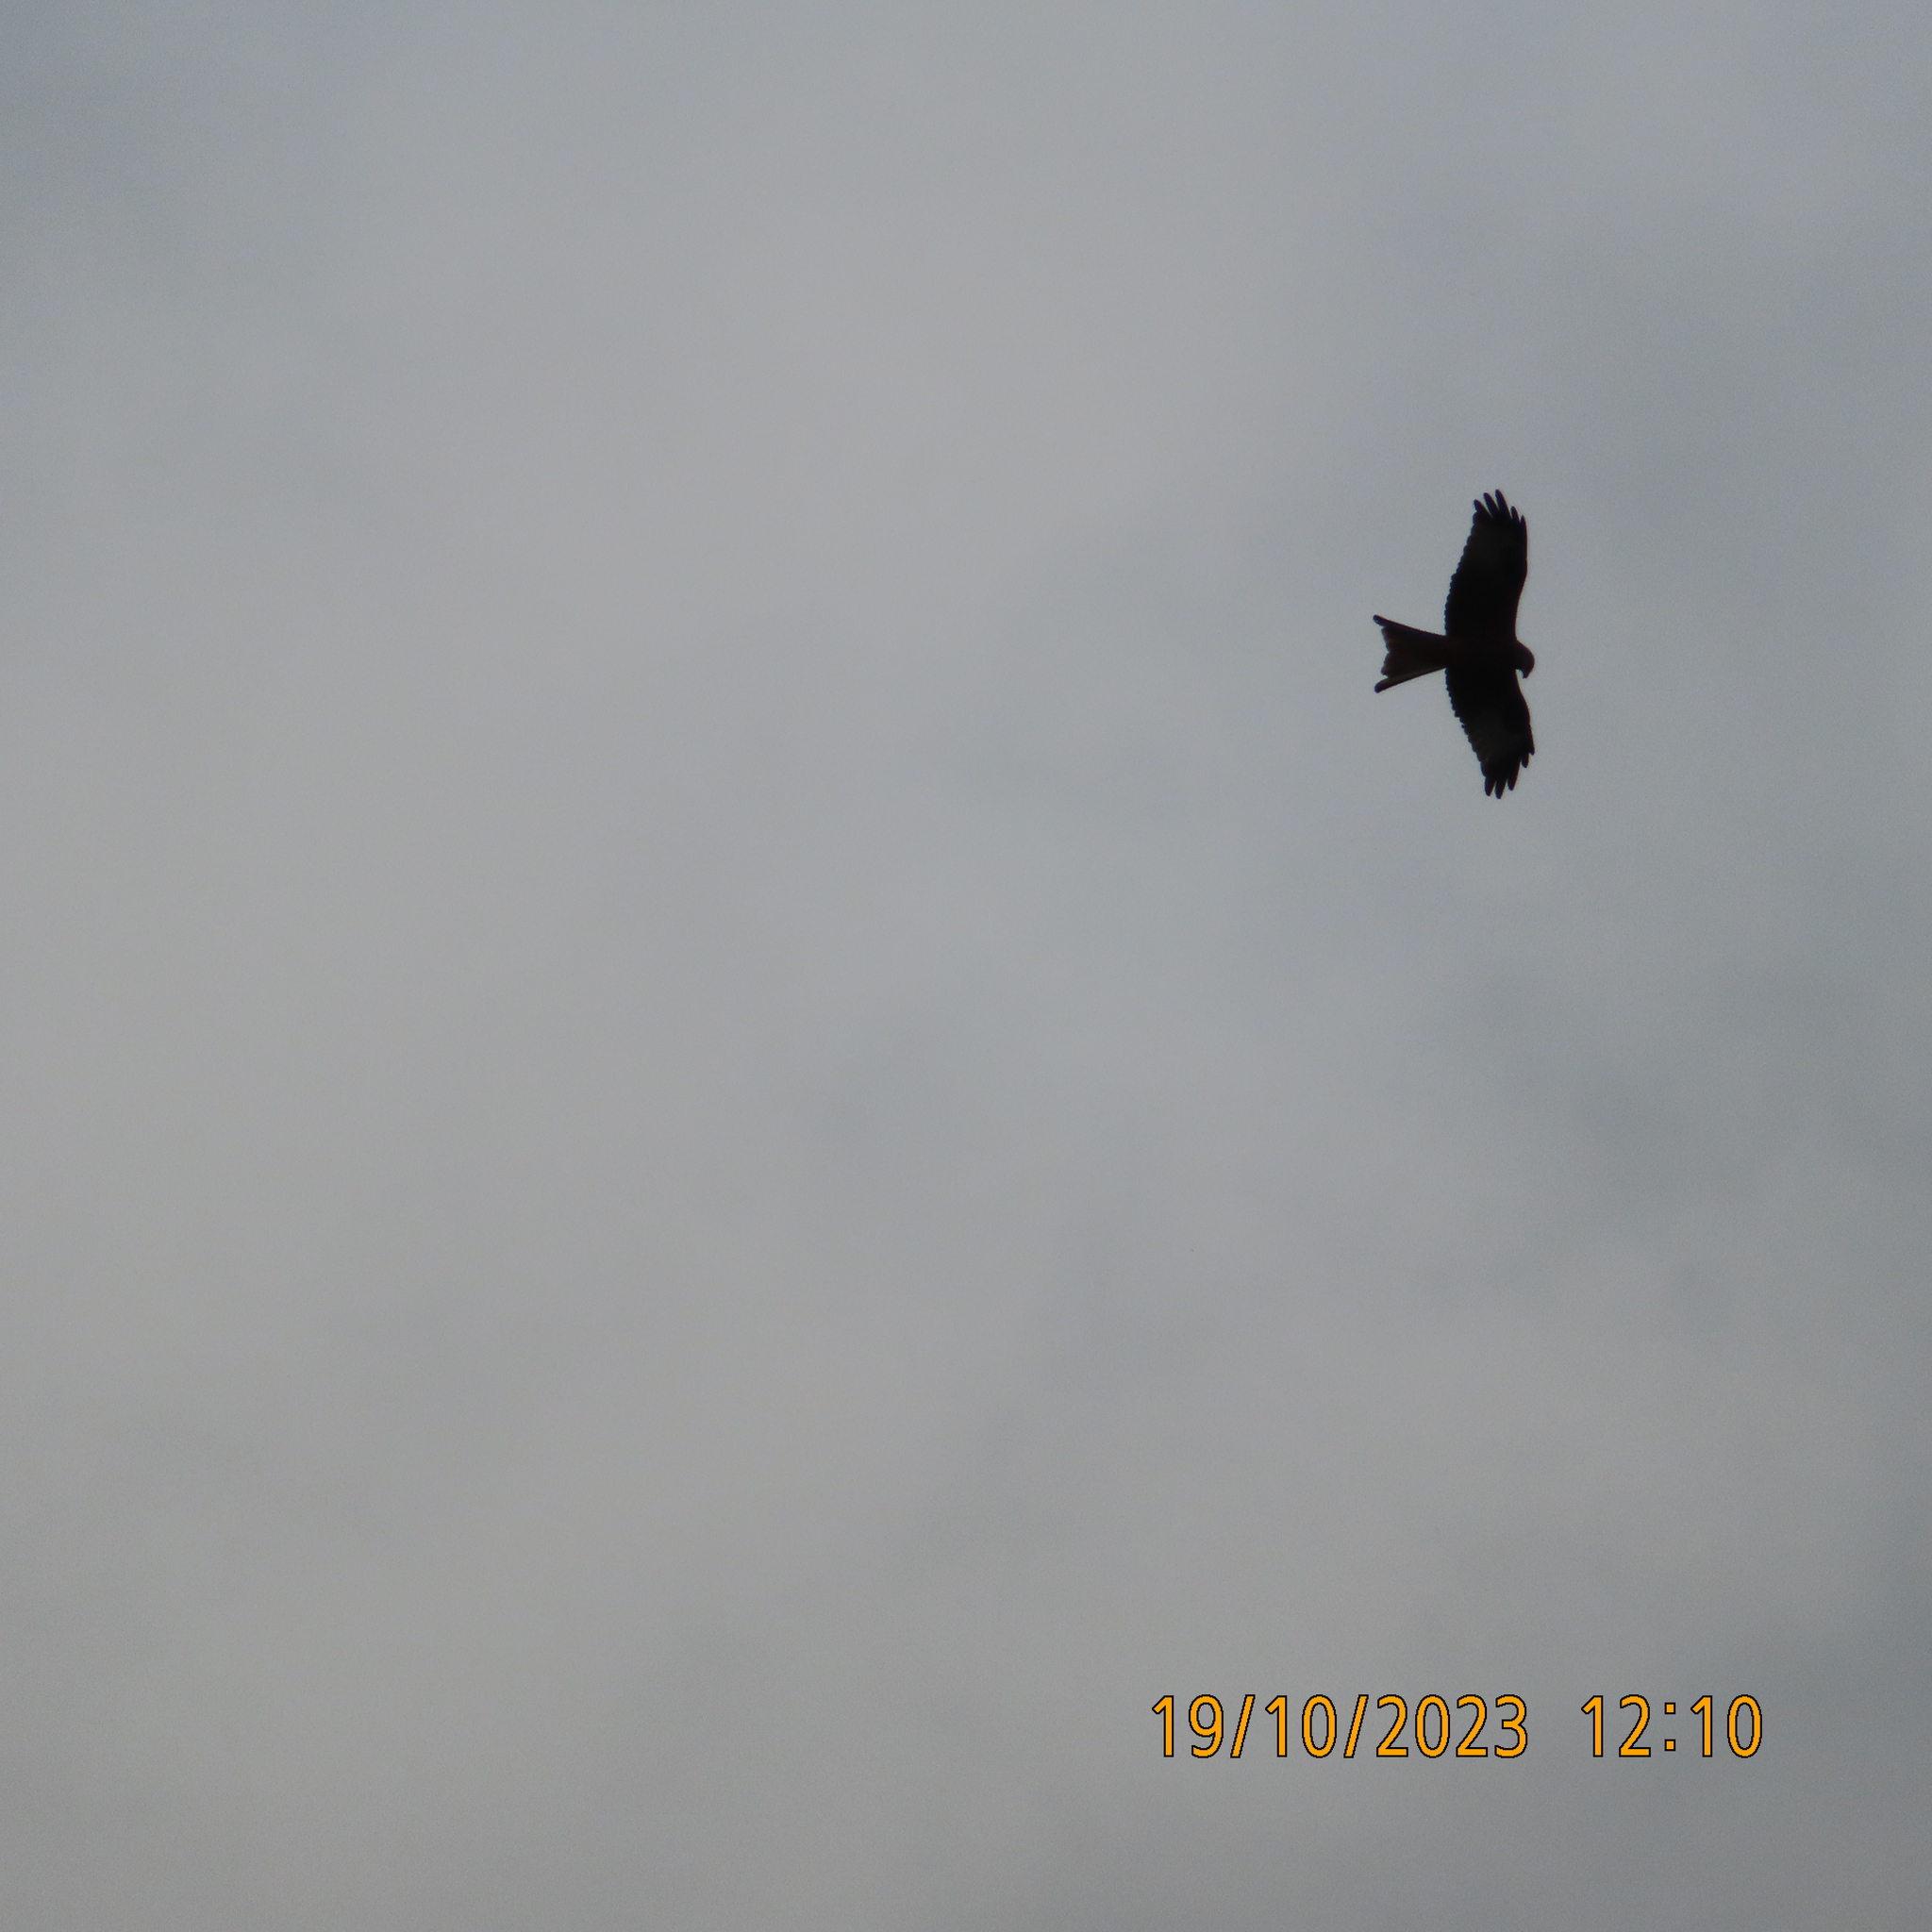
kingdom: Animalia
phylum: Chordata
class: Aves
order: Accipitriformes
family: Accipitridae
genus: Milvus
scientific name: Milvus milvus
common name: Red kite
